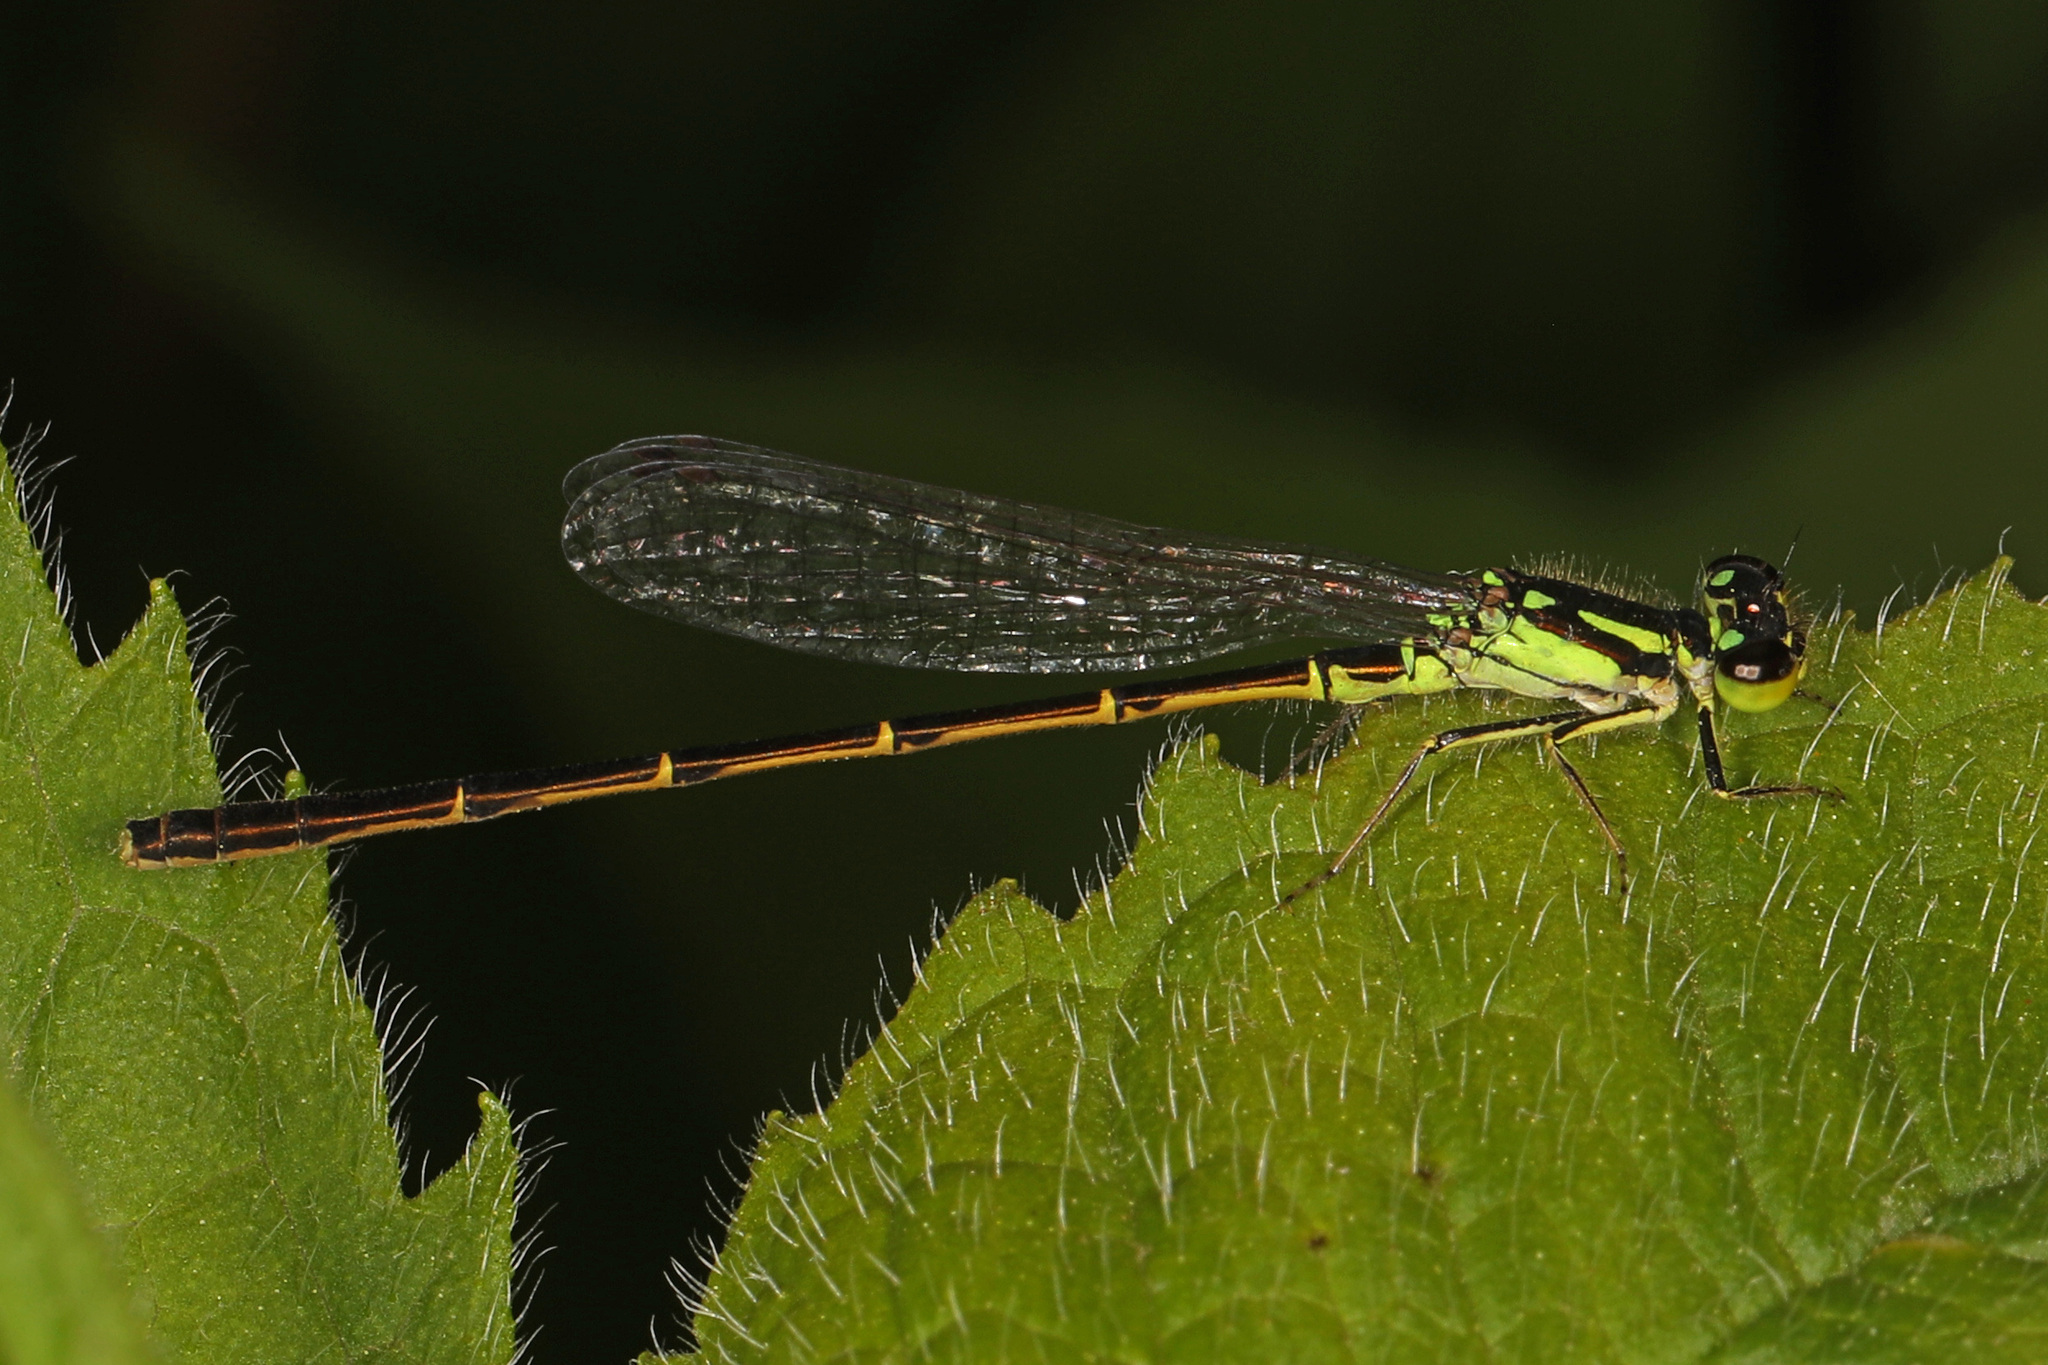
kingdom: Animalia
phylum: Arthropoda
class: Insecta
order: Odonata
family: Coenagrionidae
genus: Ischnura
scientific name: Ischnura posita
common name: Fragile forktail
